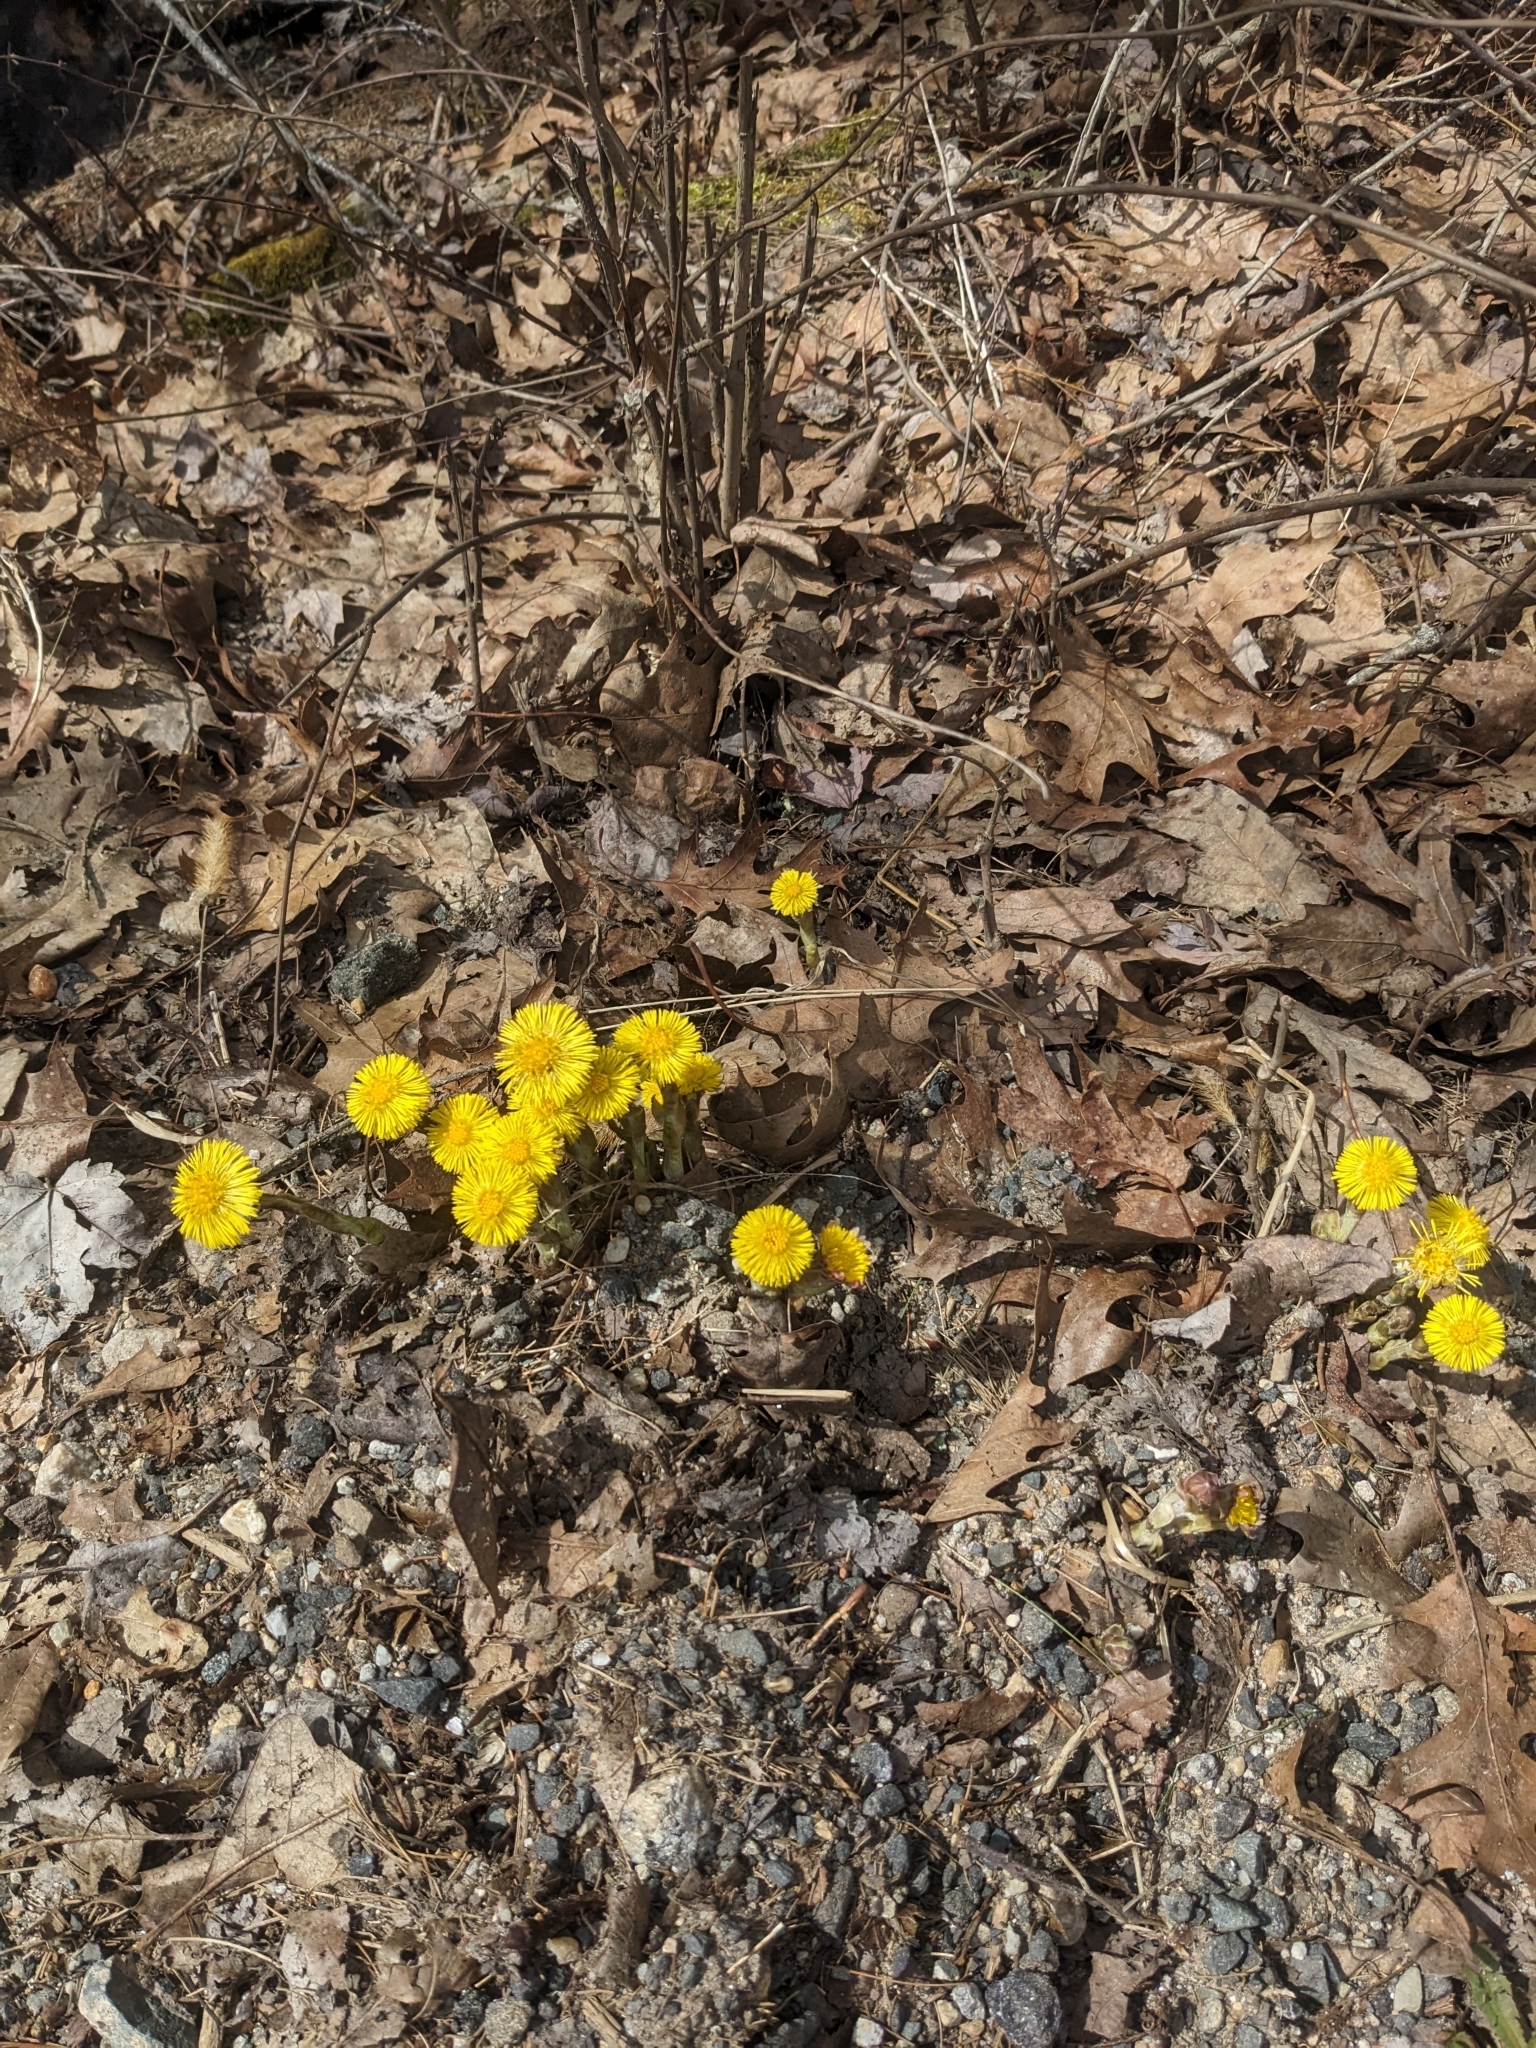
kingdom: Plantae
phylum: Tracheophyta
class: Magnoliopsida
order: Asterales
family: Asteraceae
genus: Tussilago
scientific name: Tussilago farfara
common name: Coltsfoot
